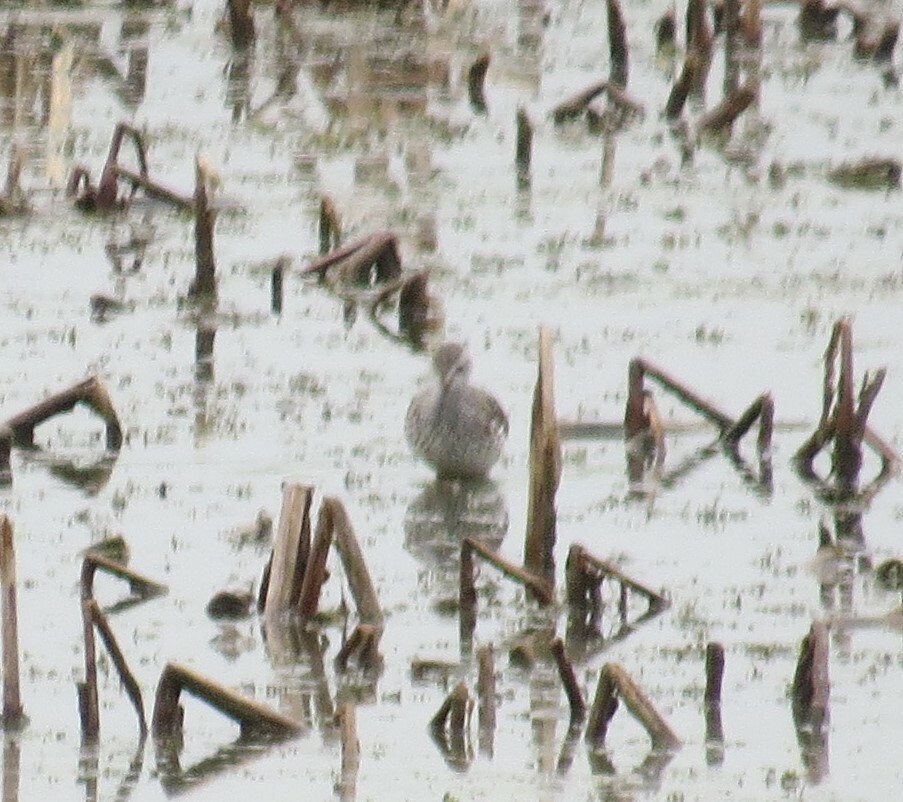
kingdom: Animalia
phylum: Chordata
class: Aves
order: Charadriiformes
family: Scolopacidae
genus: Tringa
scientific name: Tringa flavipes
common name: Lesser yellowlegs
